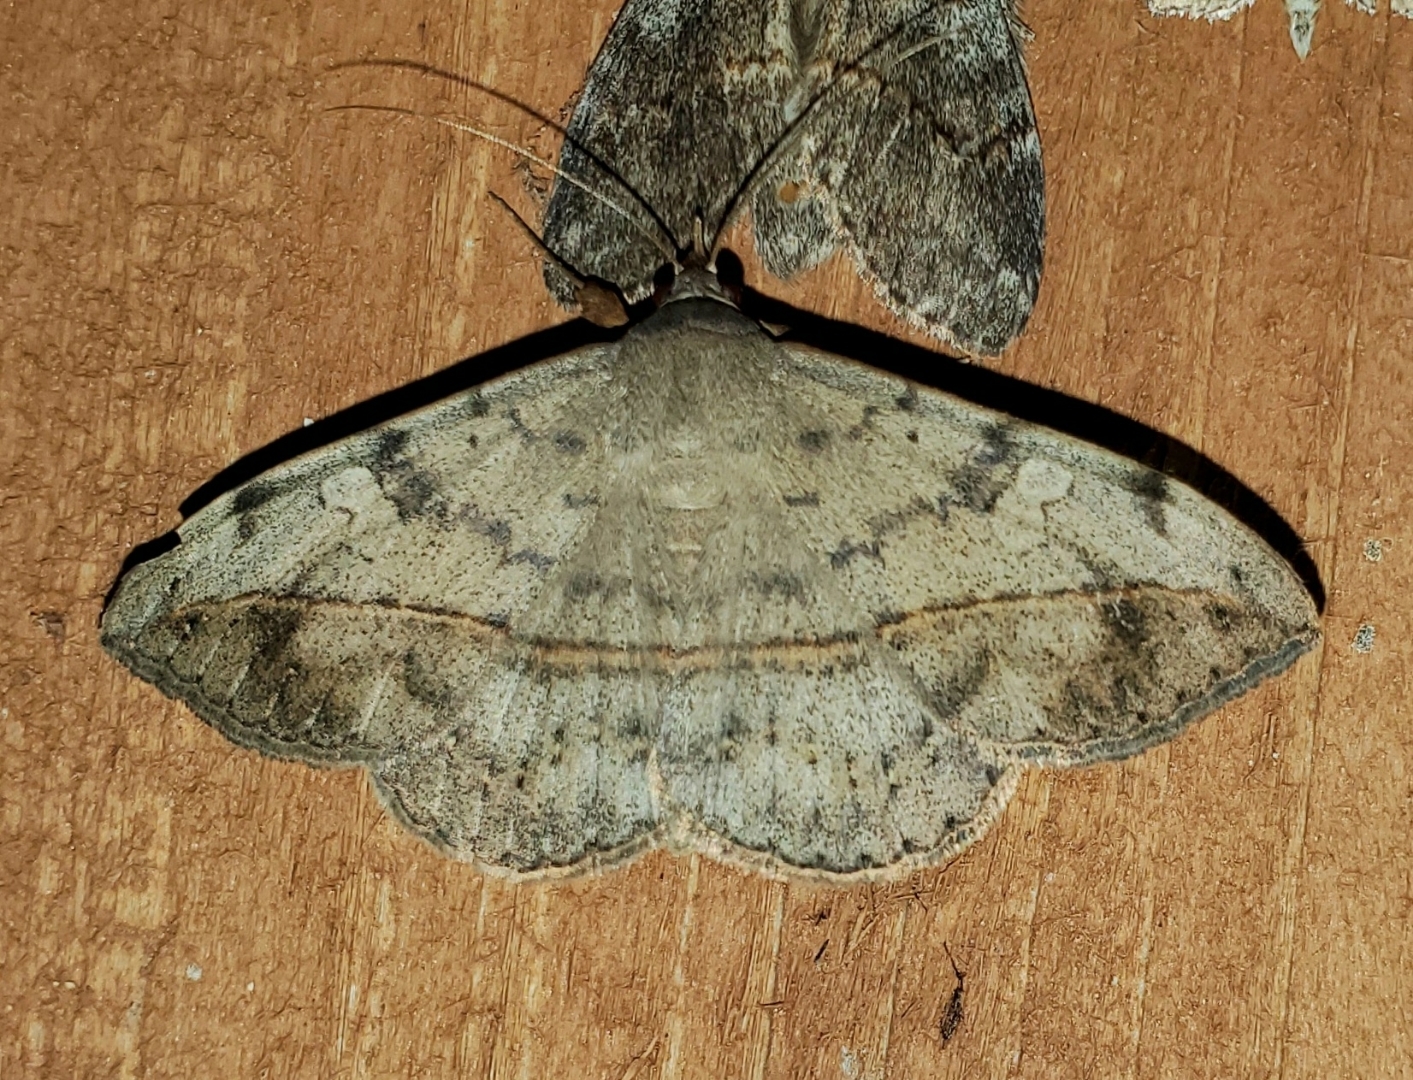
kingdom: Animalia
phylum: Arthropoda
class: Insecta
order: Lepidoptera
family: Erebidae
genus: Anticarsia
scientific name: Anticarsia gemmatalis
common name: Cutworm moth
